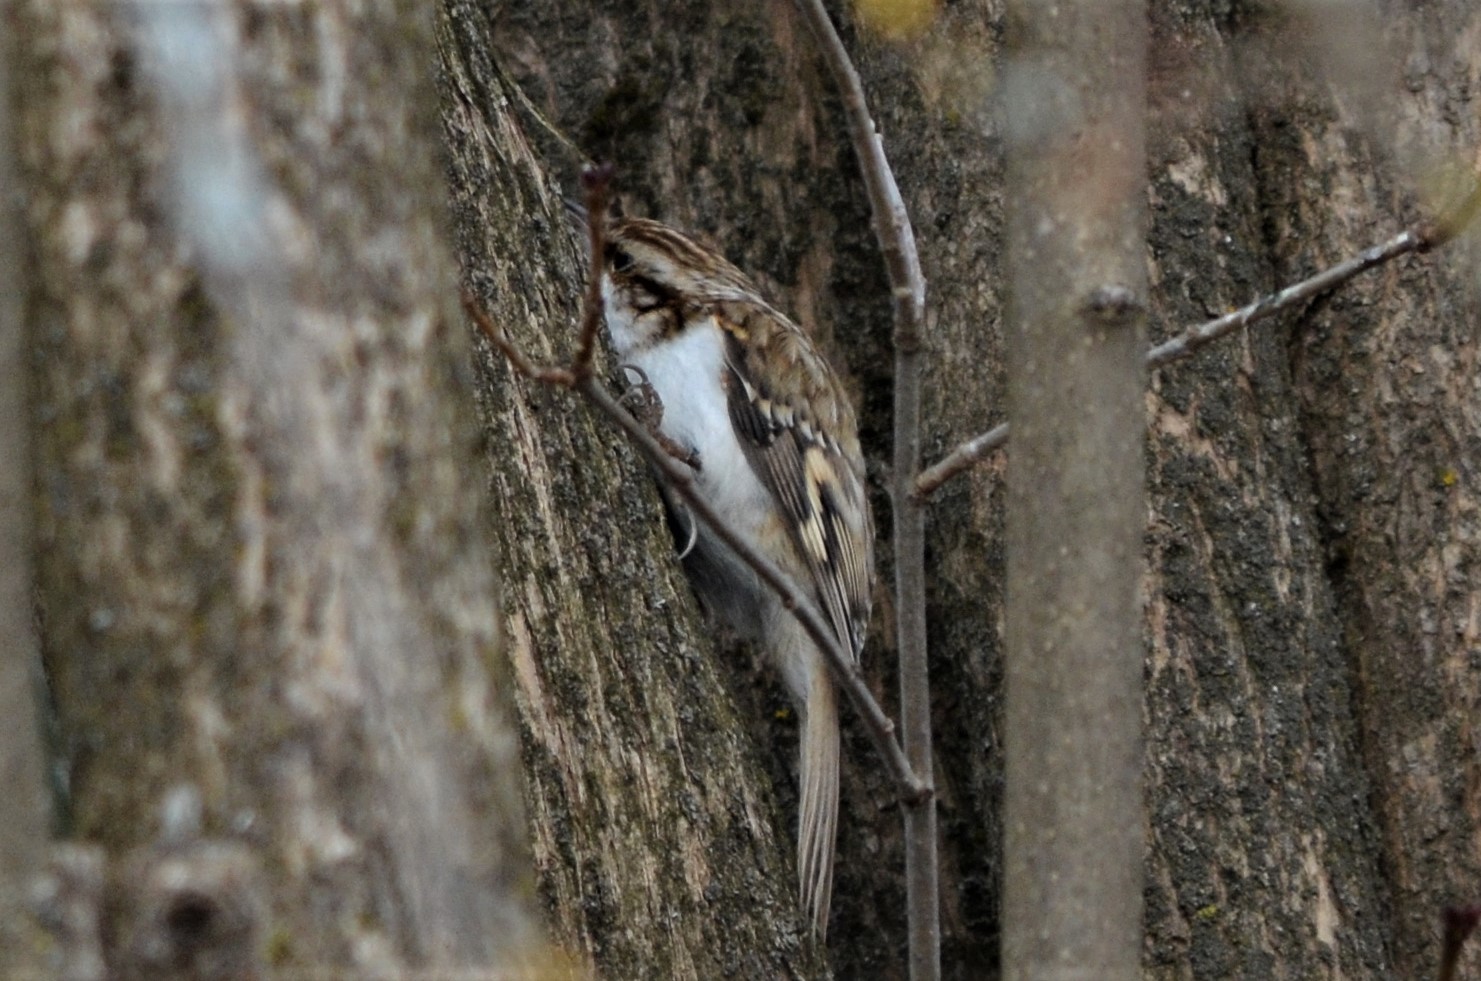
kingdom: Animalia
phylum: Chordata
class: Aves
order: Passeriformes
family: Certhiidae
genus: Certhia
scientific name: Certhia familiaris
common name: Eurasian treecreeper
